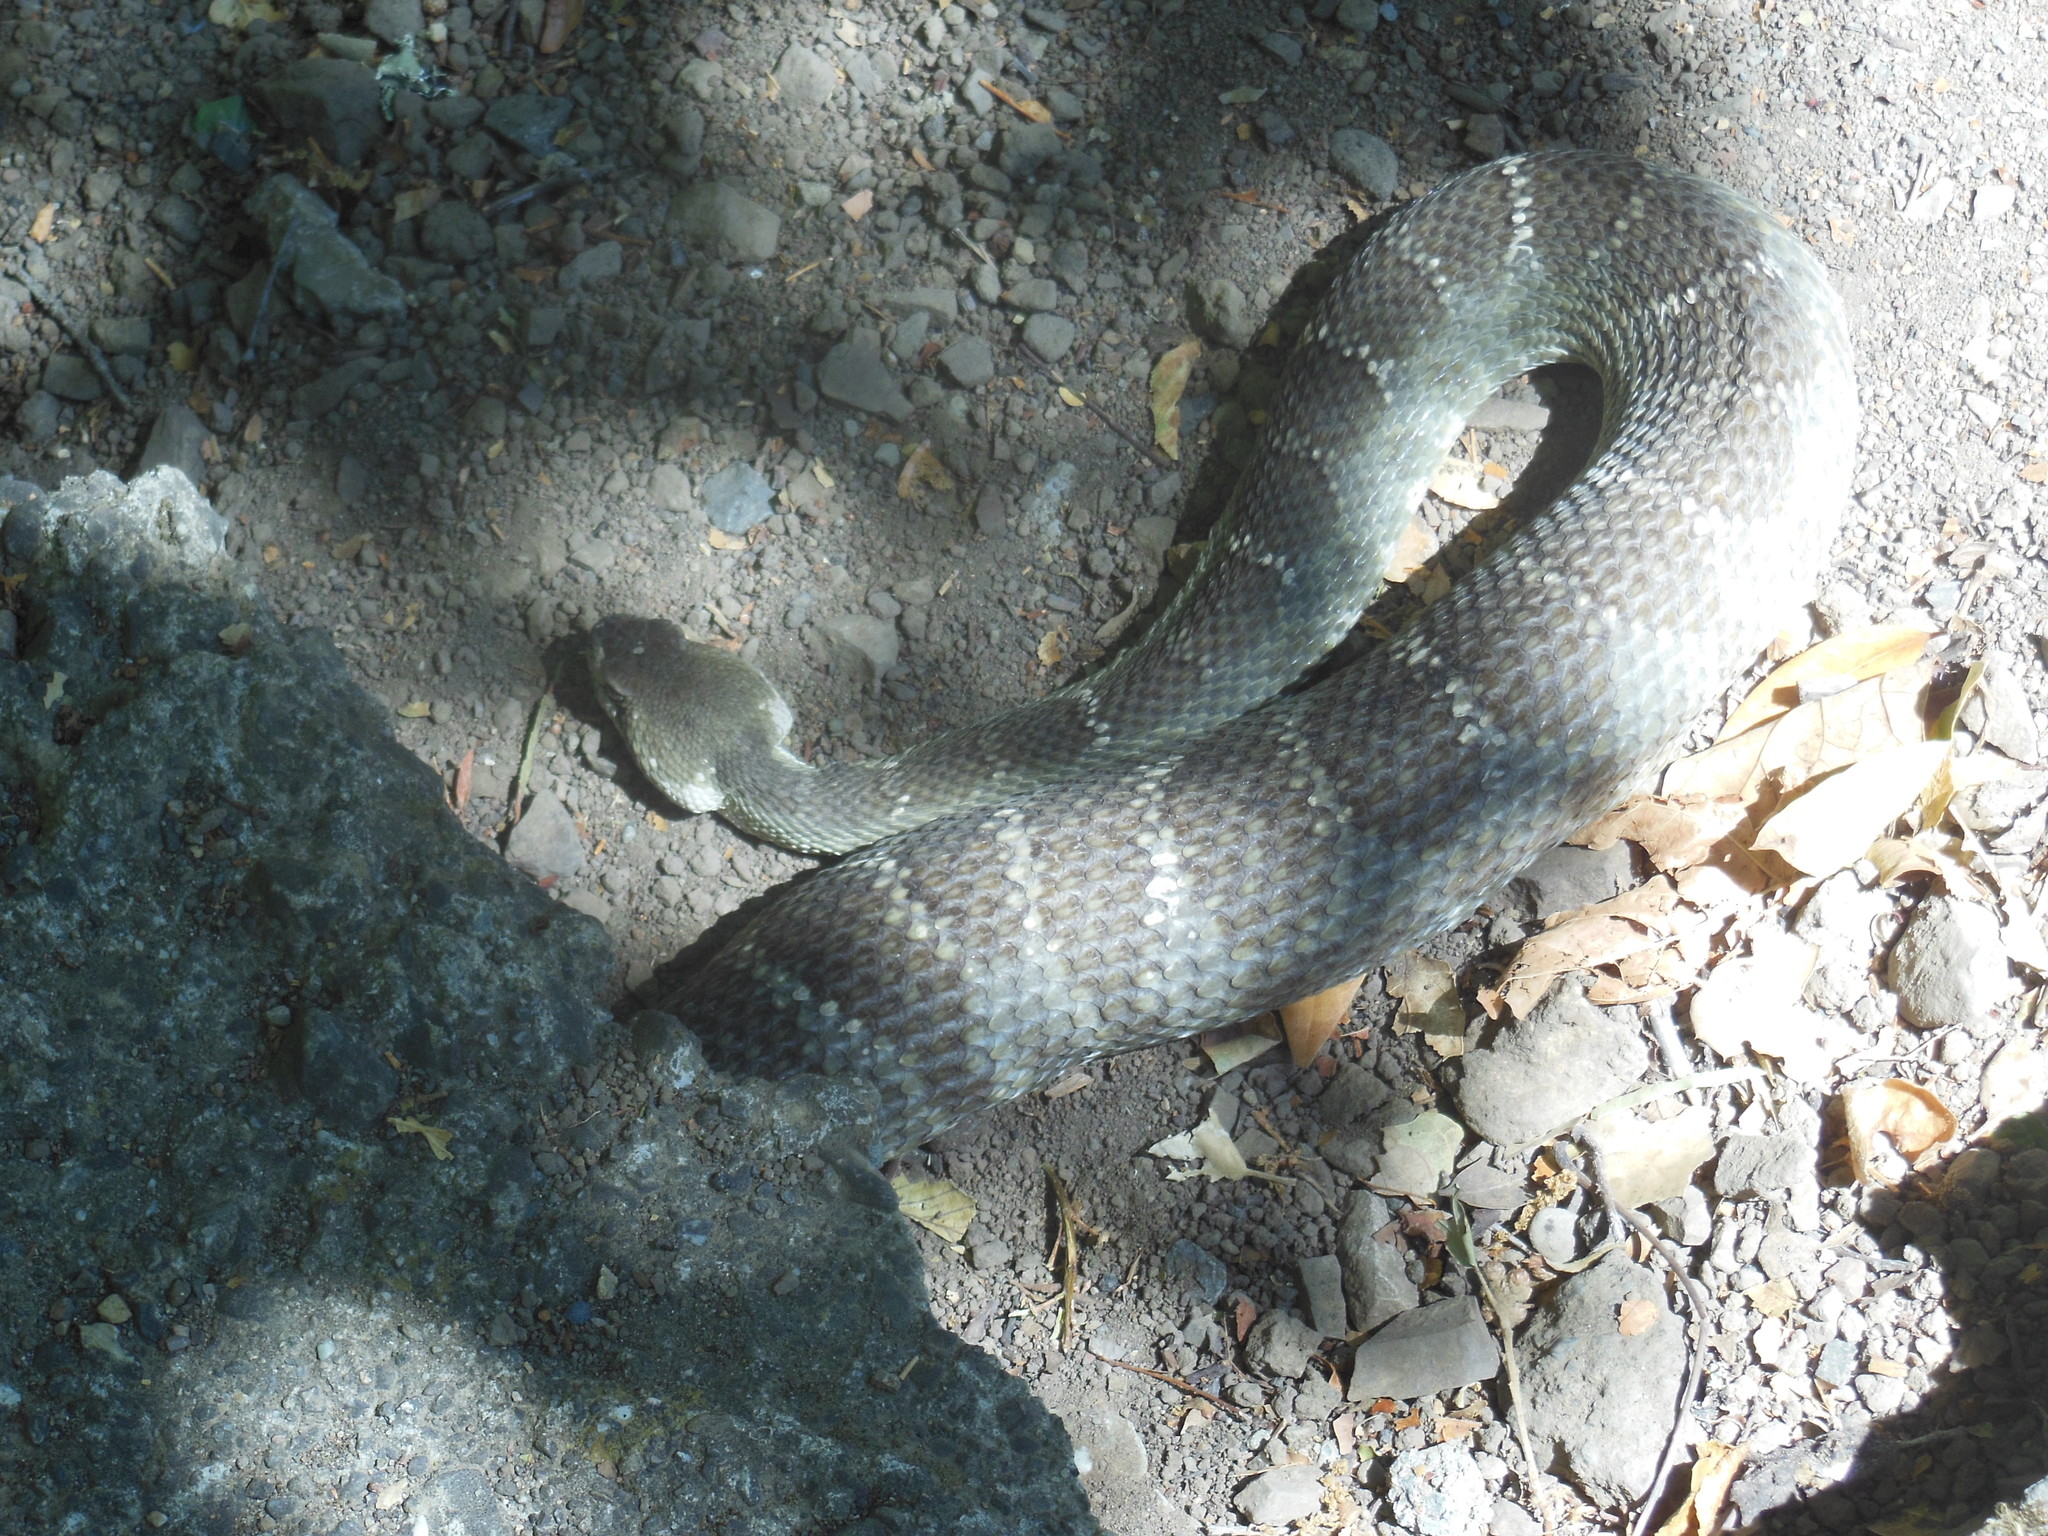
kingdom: Animalia
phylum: Chordata
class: Squamata
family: Viperidae
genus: Crotalus
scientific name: Crotalus oreganus
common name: Abyssus
